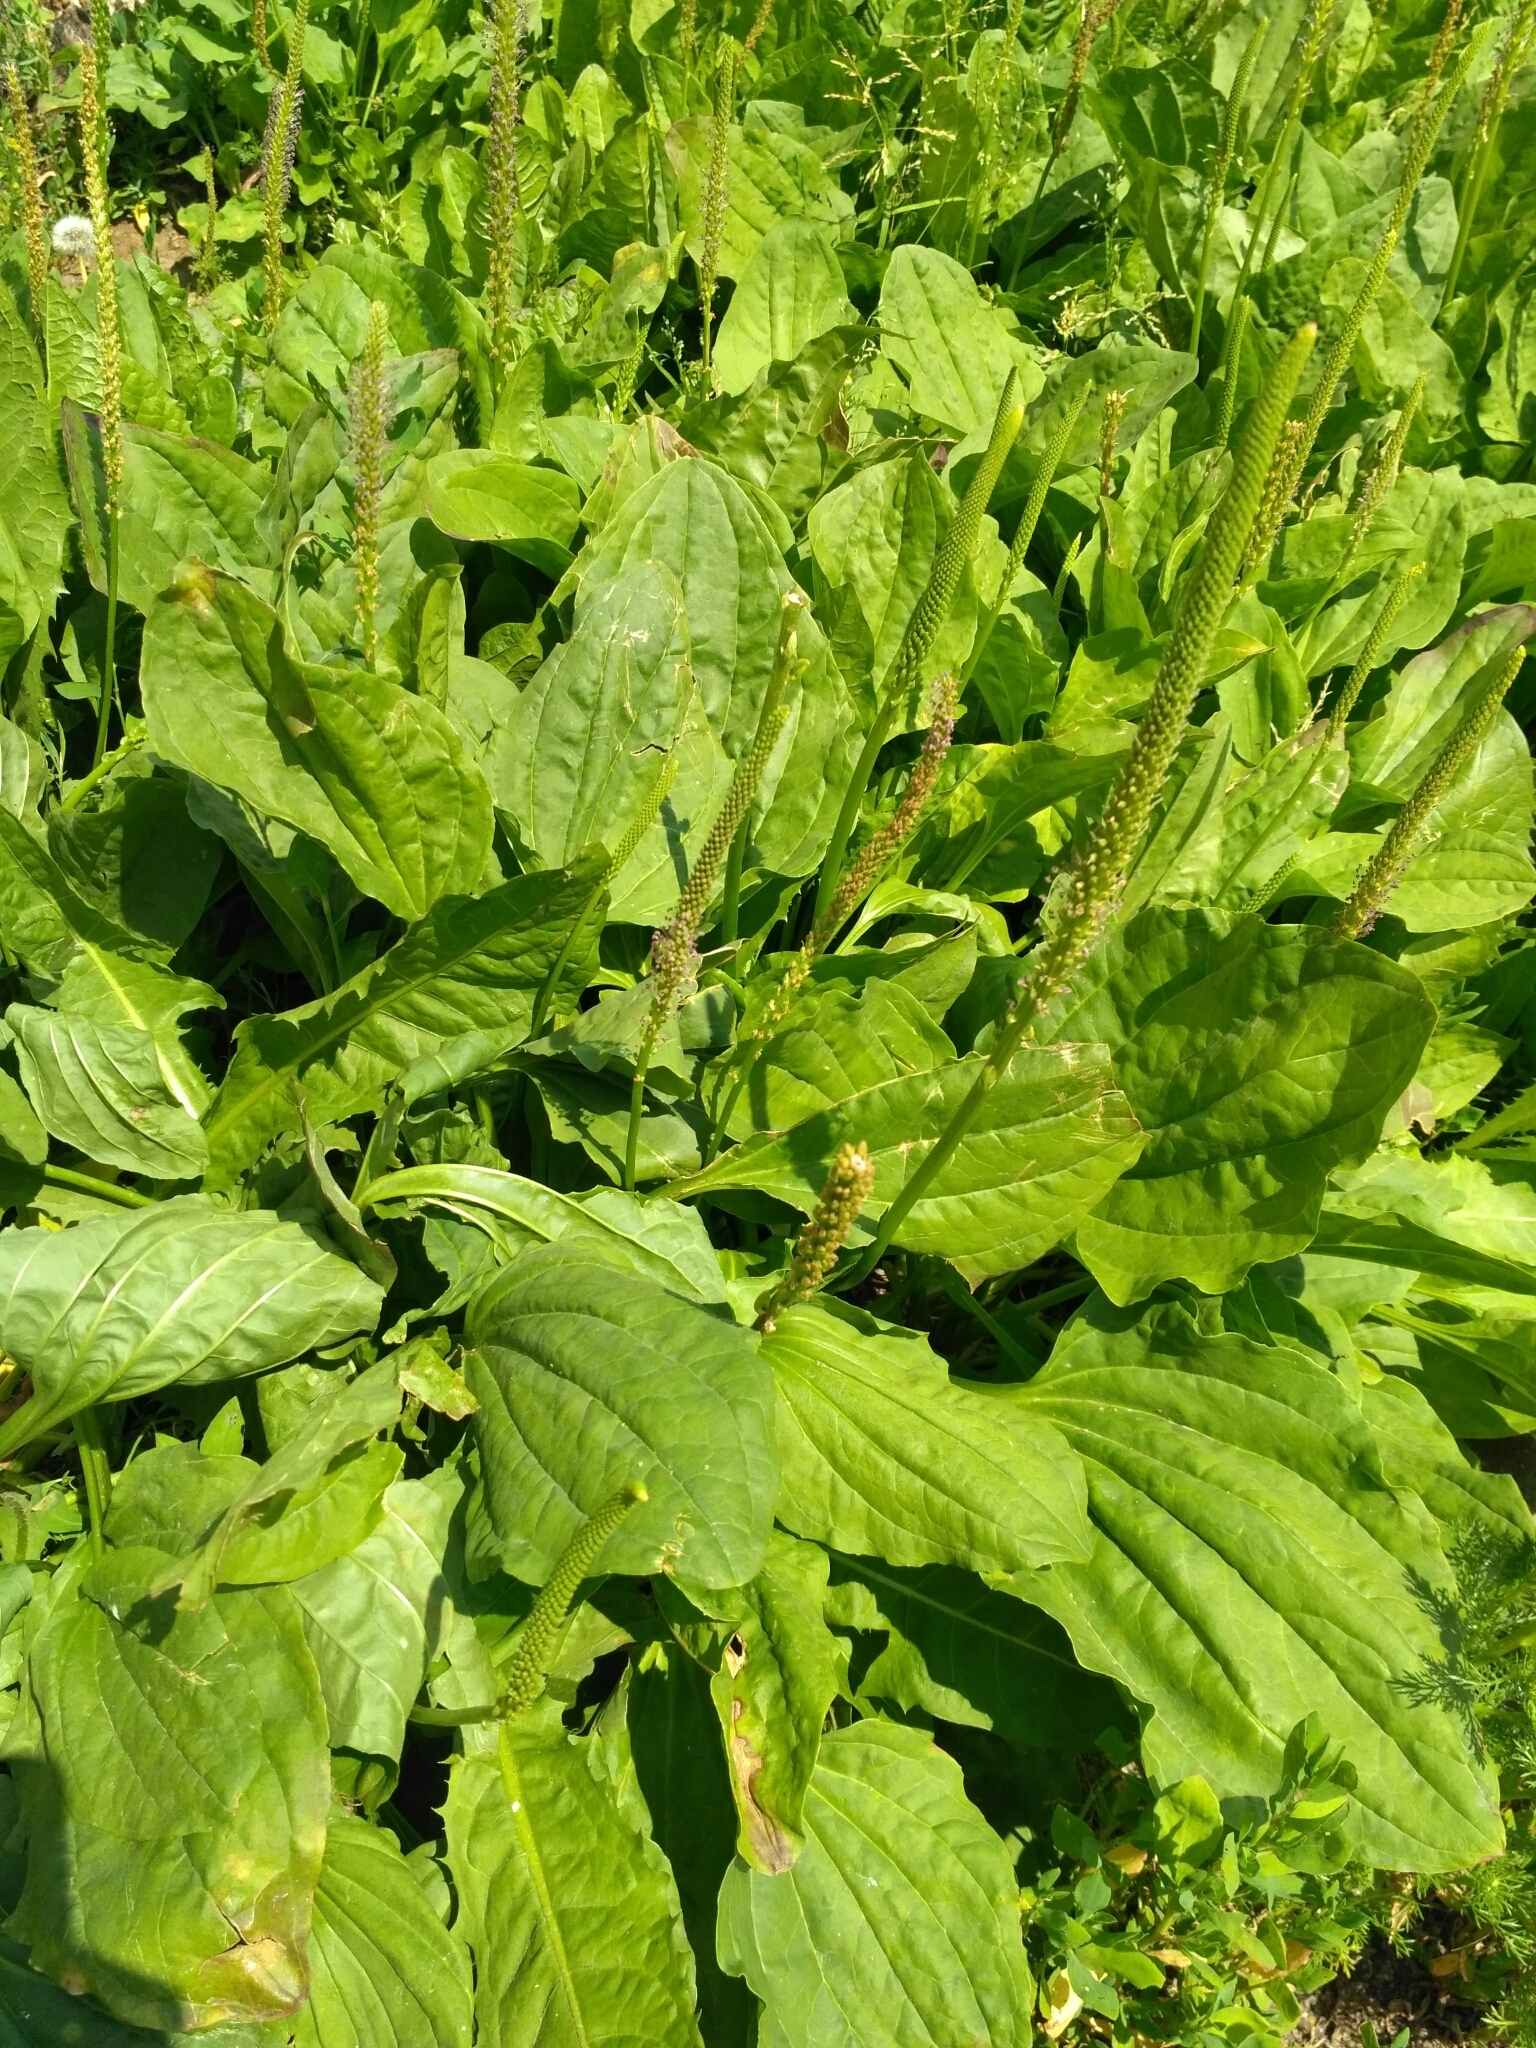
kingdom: Plantae
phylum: Tracheophyta
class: Magnoliopsida
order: Lamiales
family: Plantaginaceae
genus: Plantago
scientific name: Plantago major
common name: Common plantain
